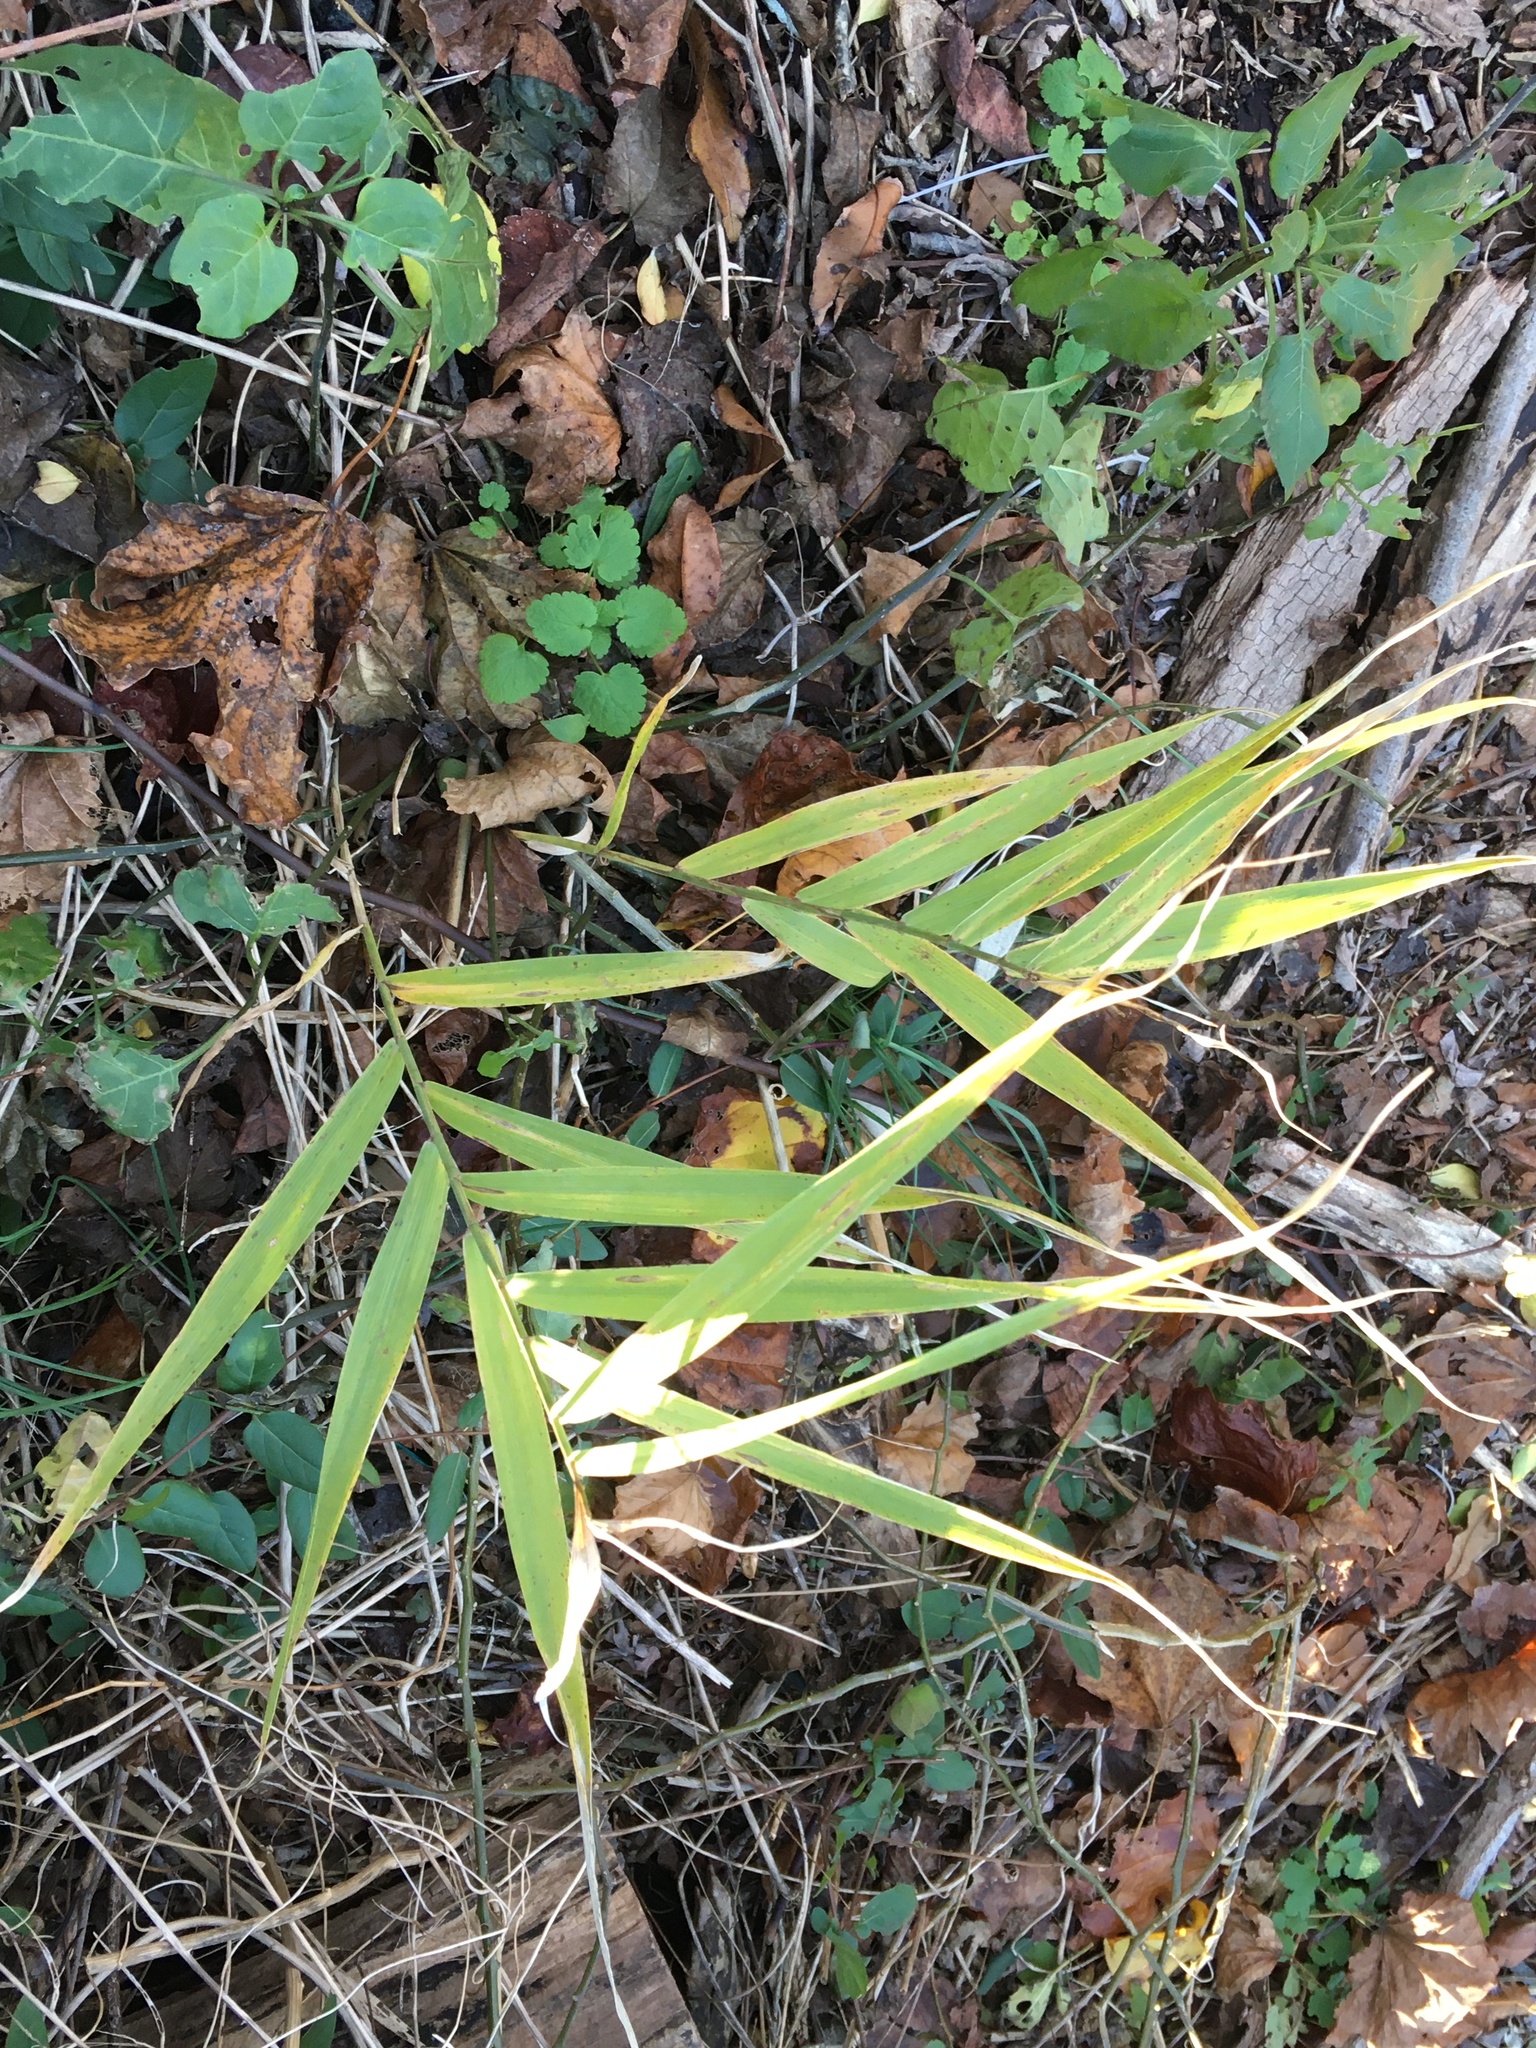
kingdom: Plantae
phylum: Tracheophyta
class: Liliopsida
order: Poales
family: Poaceae
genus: Phragmites
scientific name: Phragmites australis
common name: Common reed
